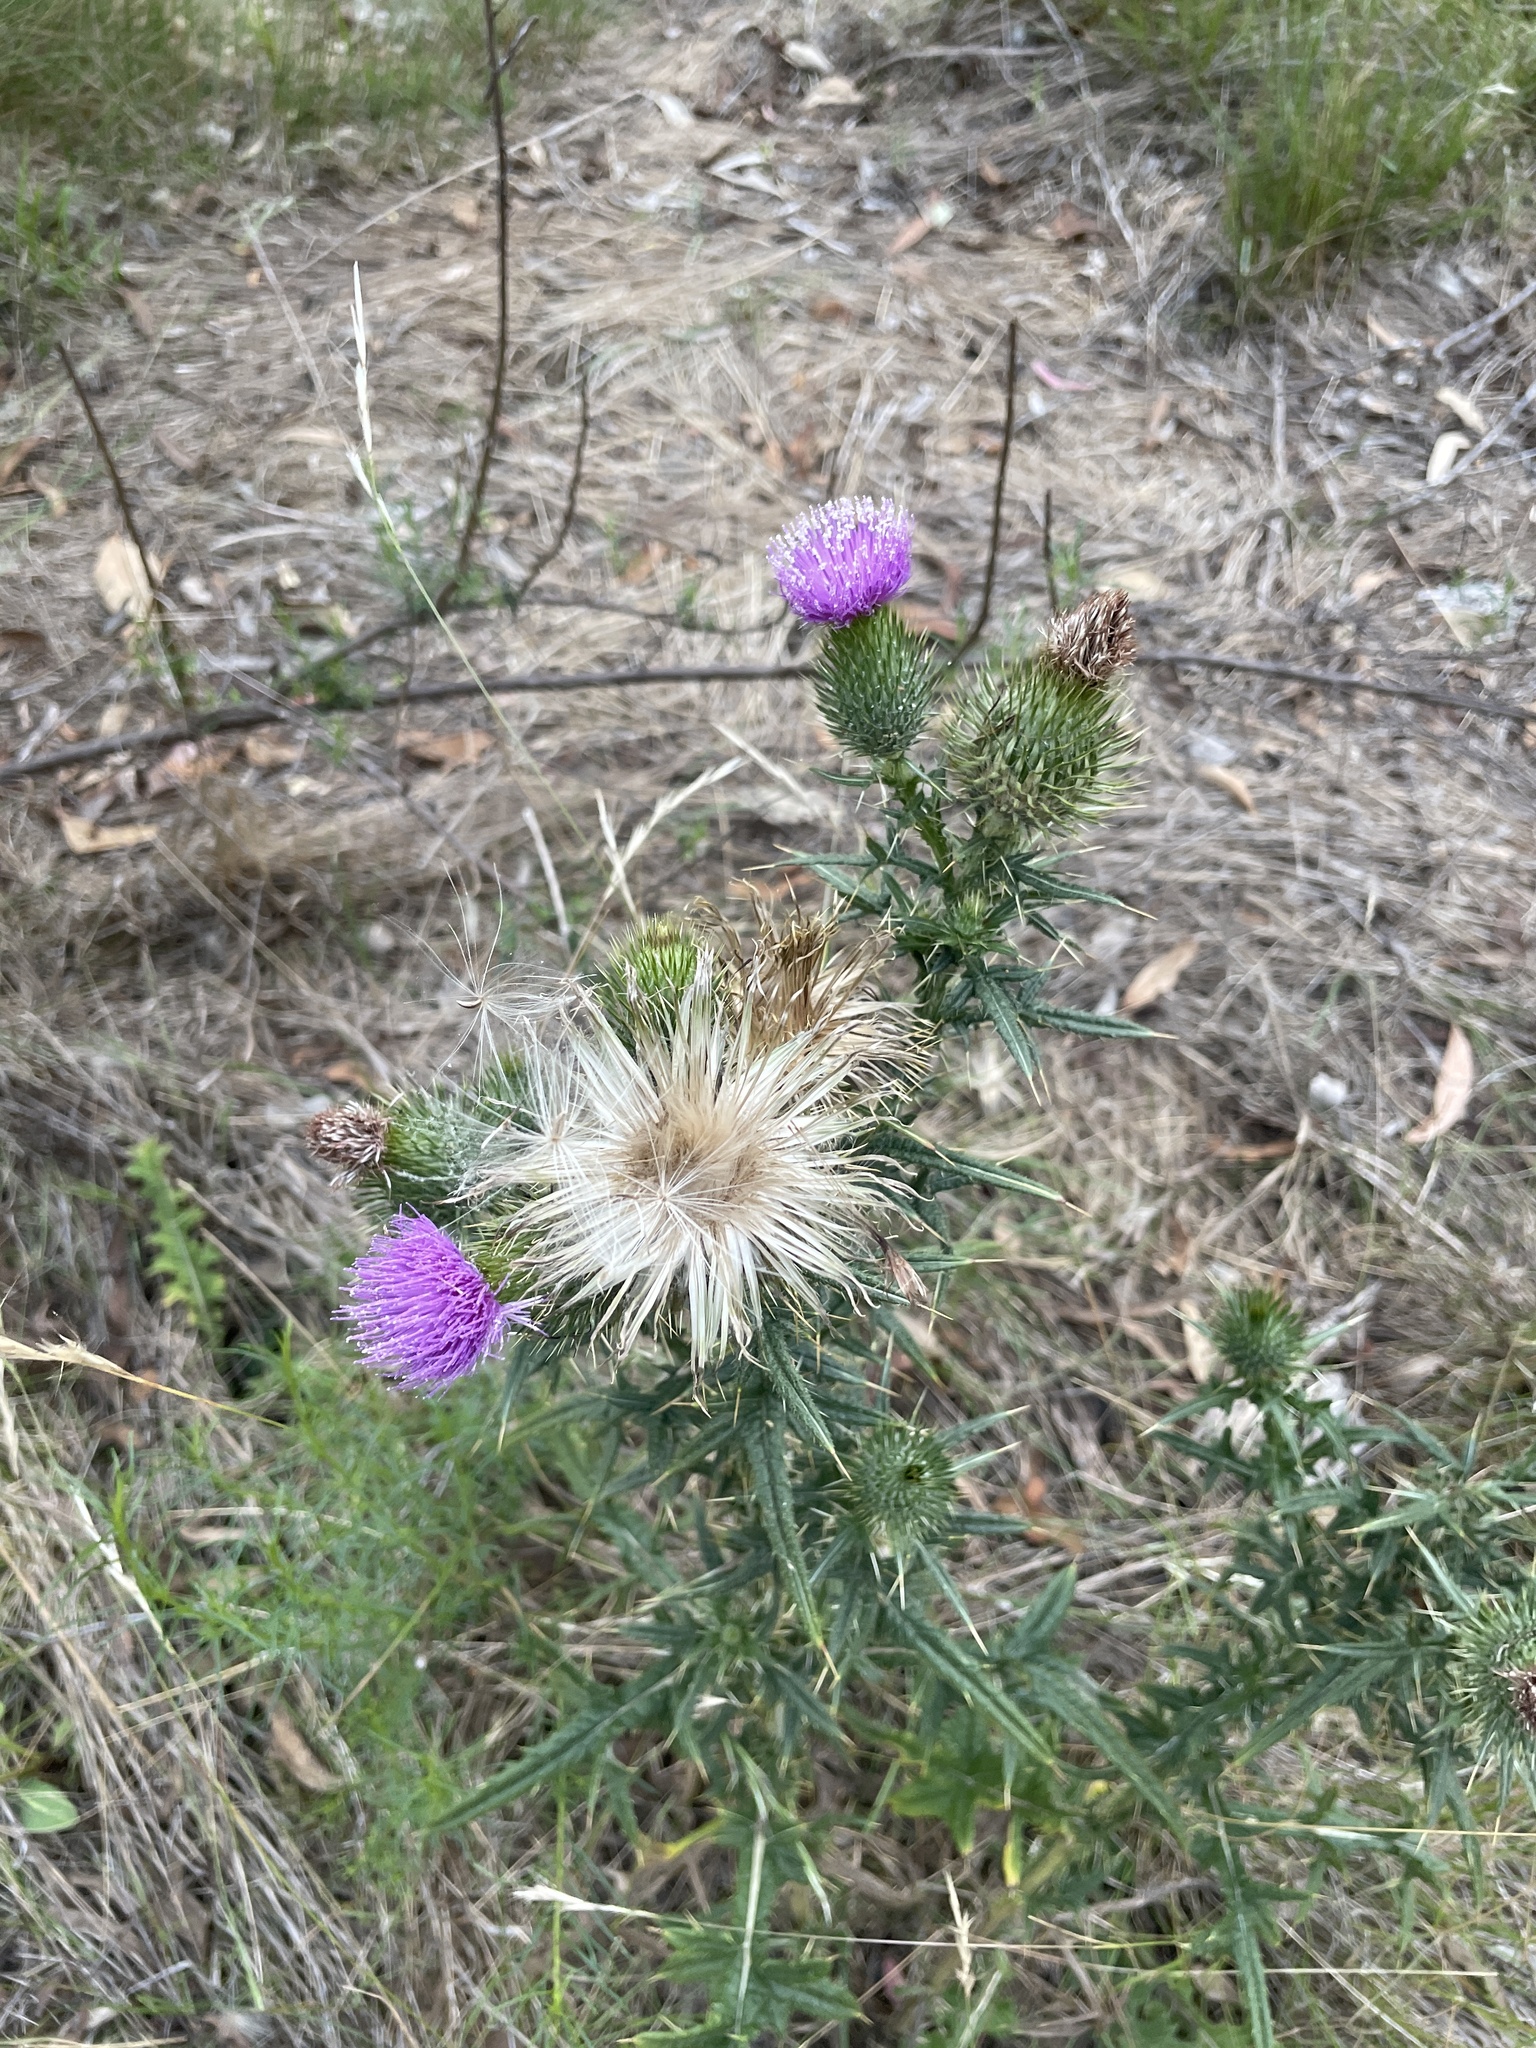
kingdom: Plantae
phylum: Tracheophyta
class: Magnoliopsida
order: Asterales
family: Asteraceae
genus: Cirsium
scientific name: Cirsium vulgare
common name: Bull thistle
